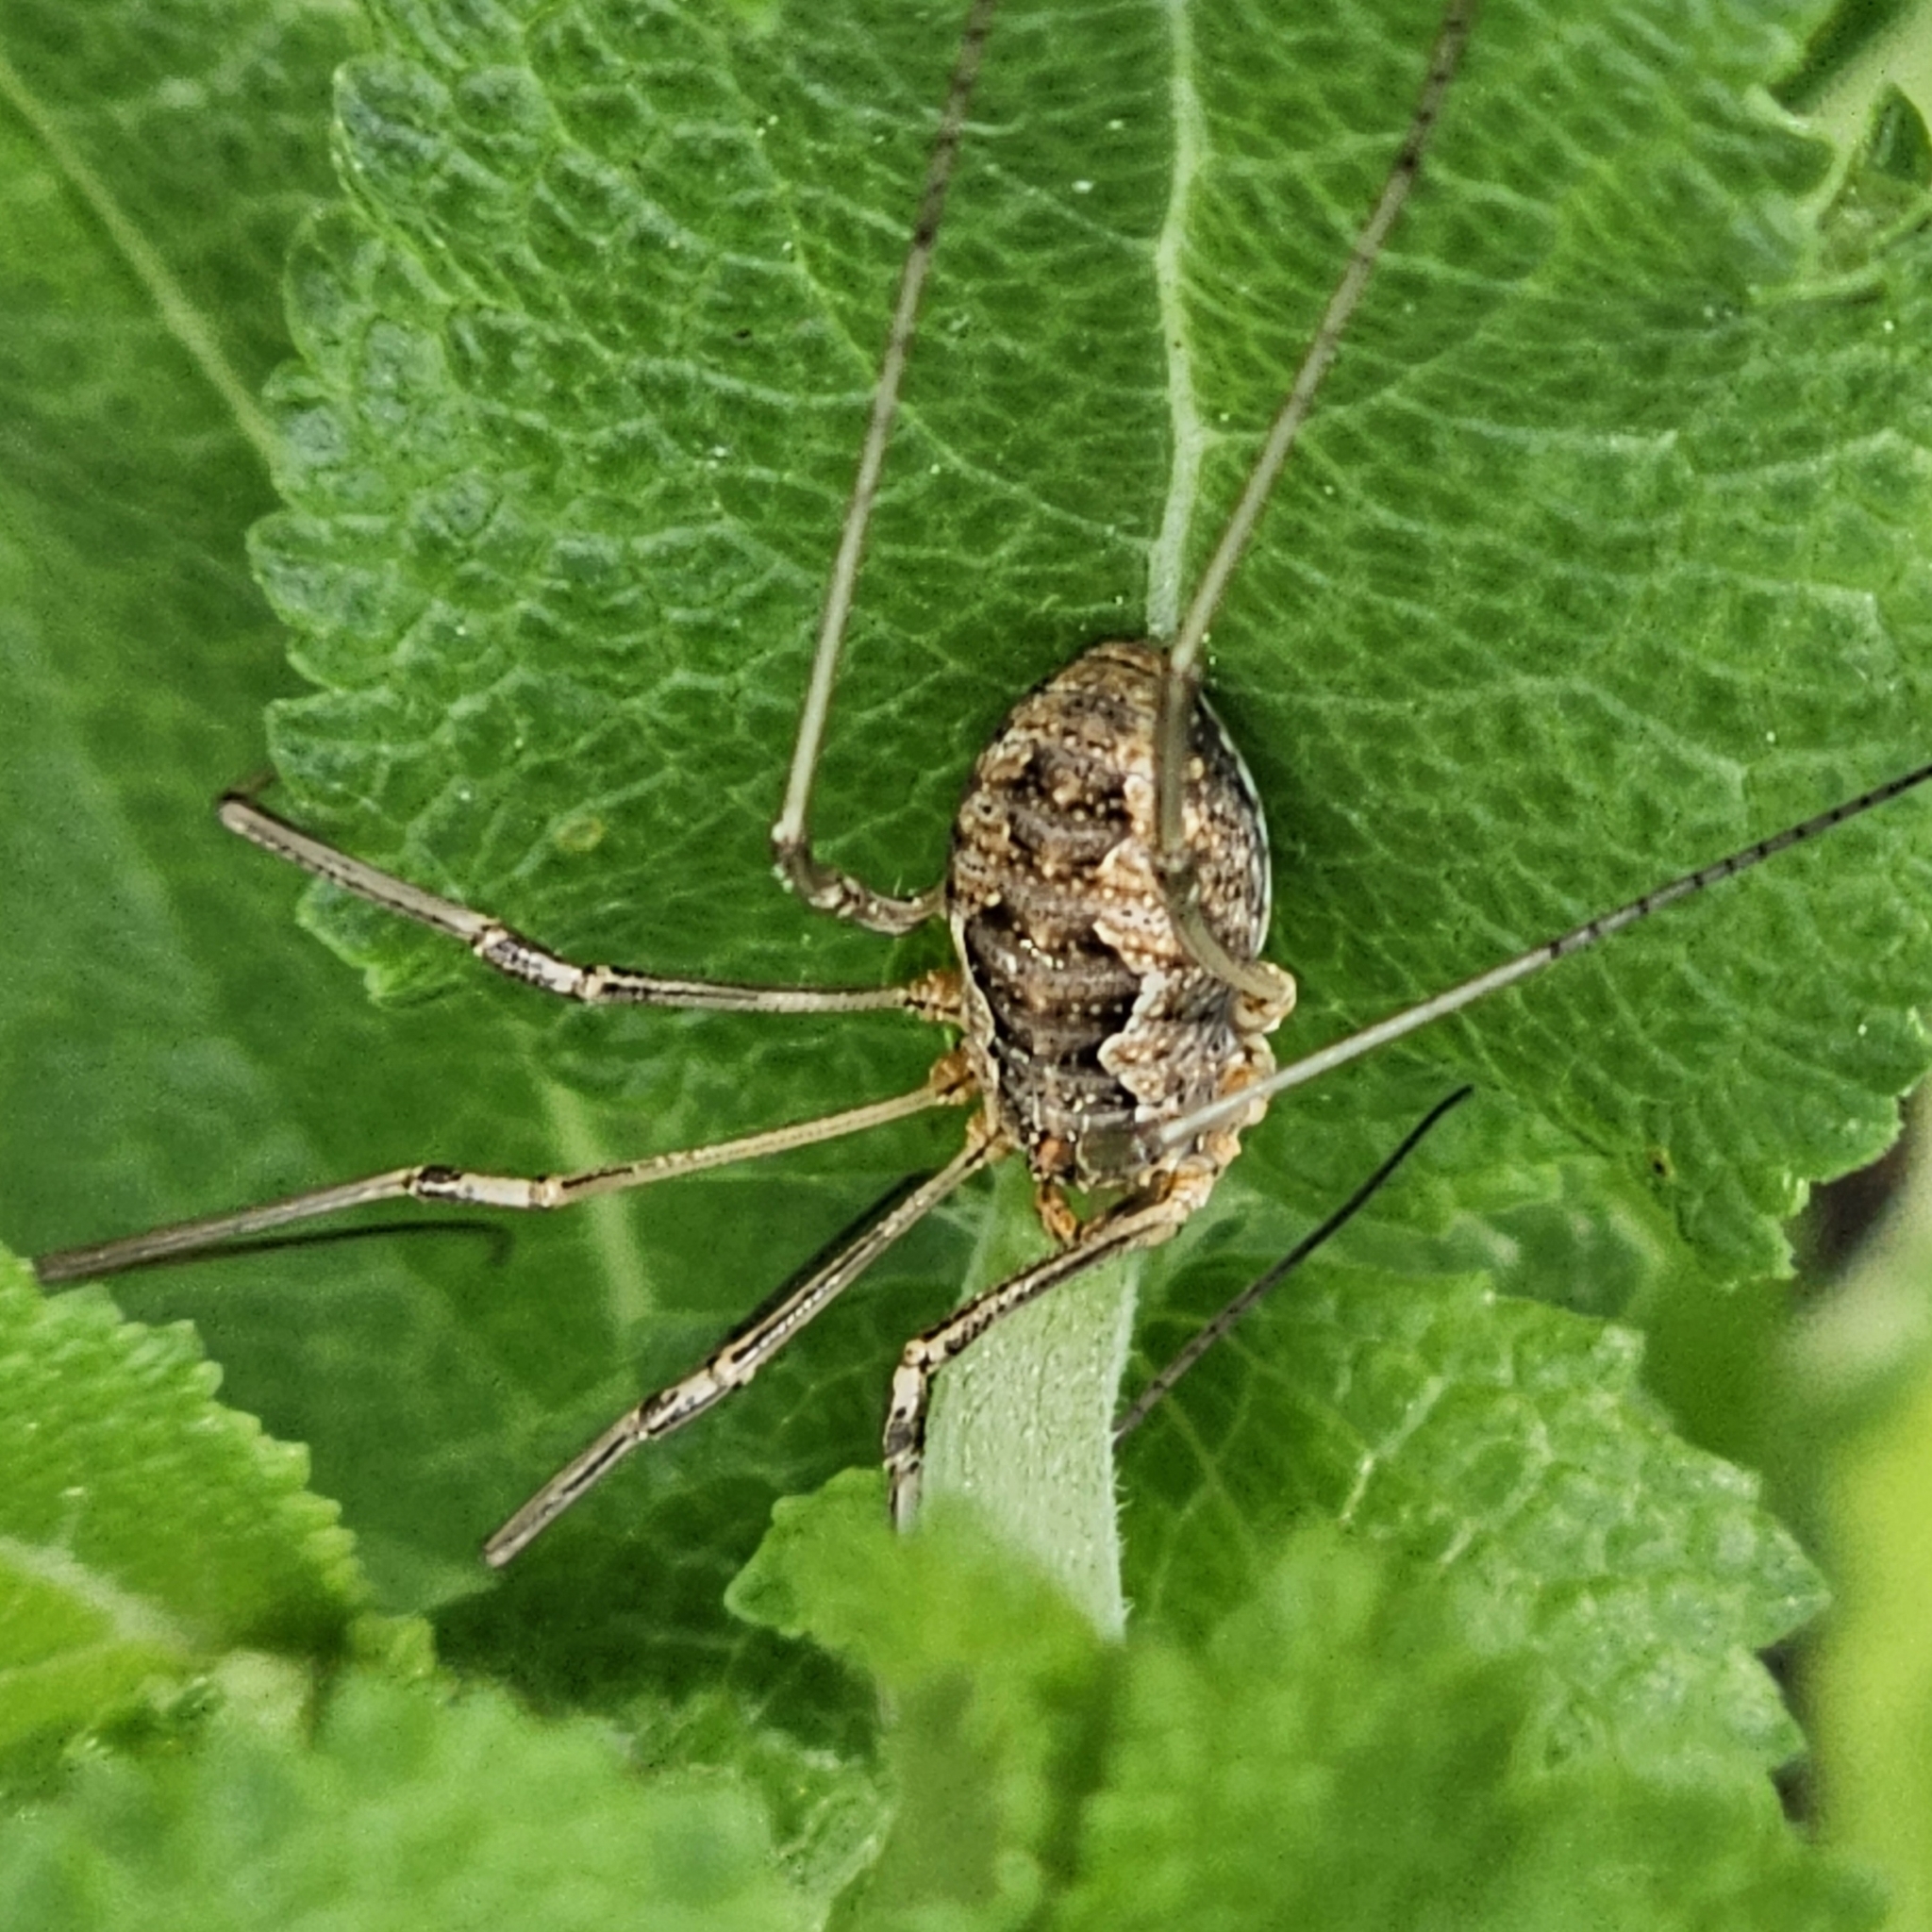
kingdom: Animalia
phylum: Arthropoda
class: Arachnida
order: Opiliones
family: Phalangiidae
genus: Phalangium
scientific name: Phalangium opilio
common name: Daddy longleg
